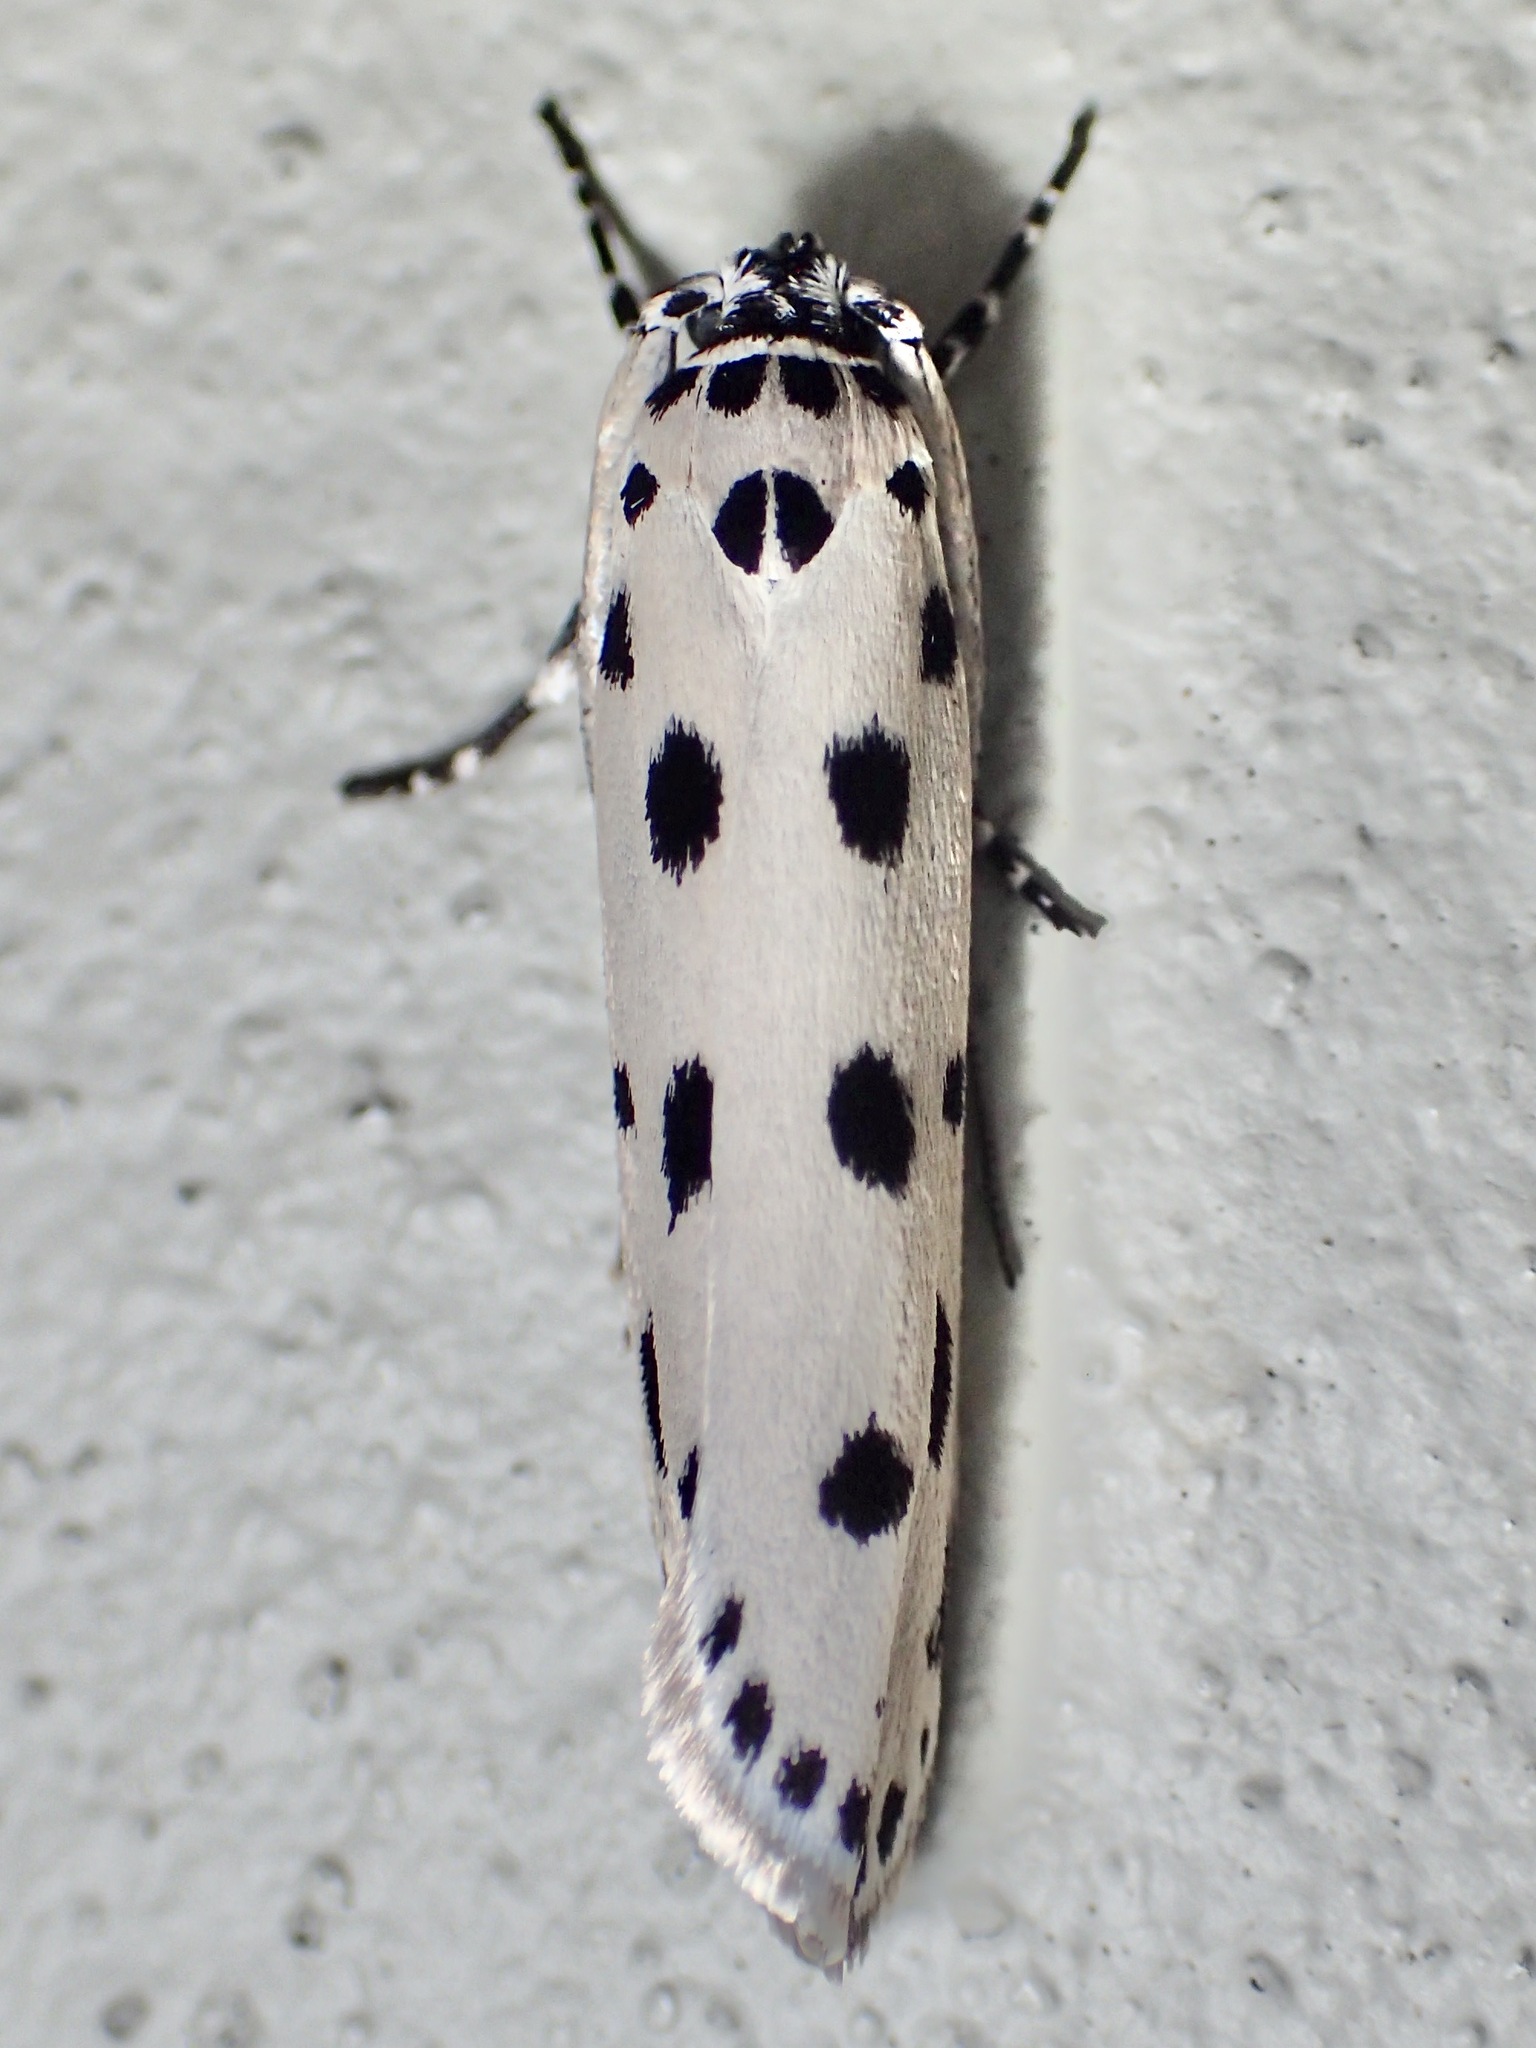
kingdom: Animalia
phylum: Arthropoda
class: Insecta
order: Lepidoptera
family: Ethmiidae
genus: Ethmia
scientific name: Ethmia sphaerosticha
